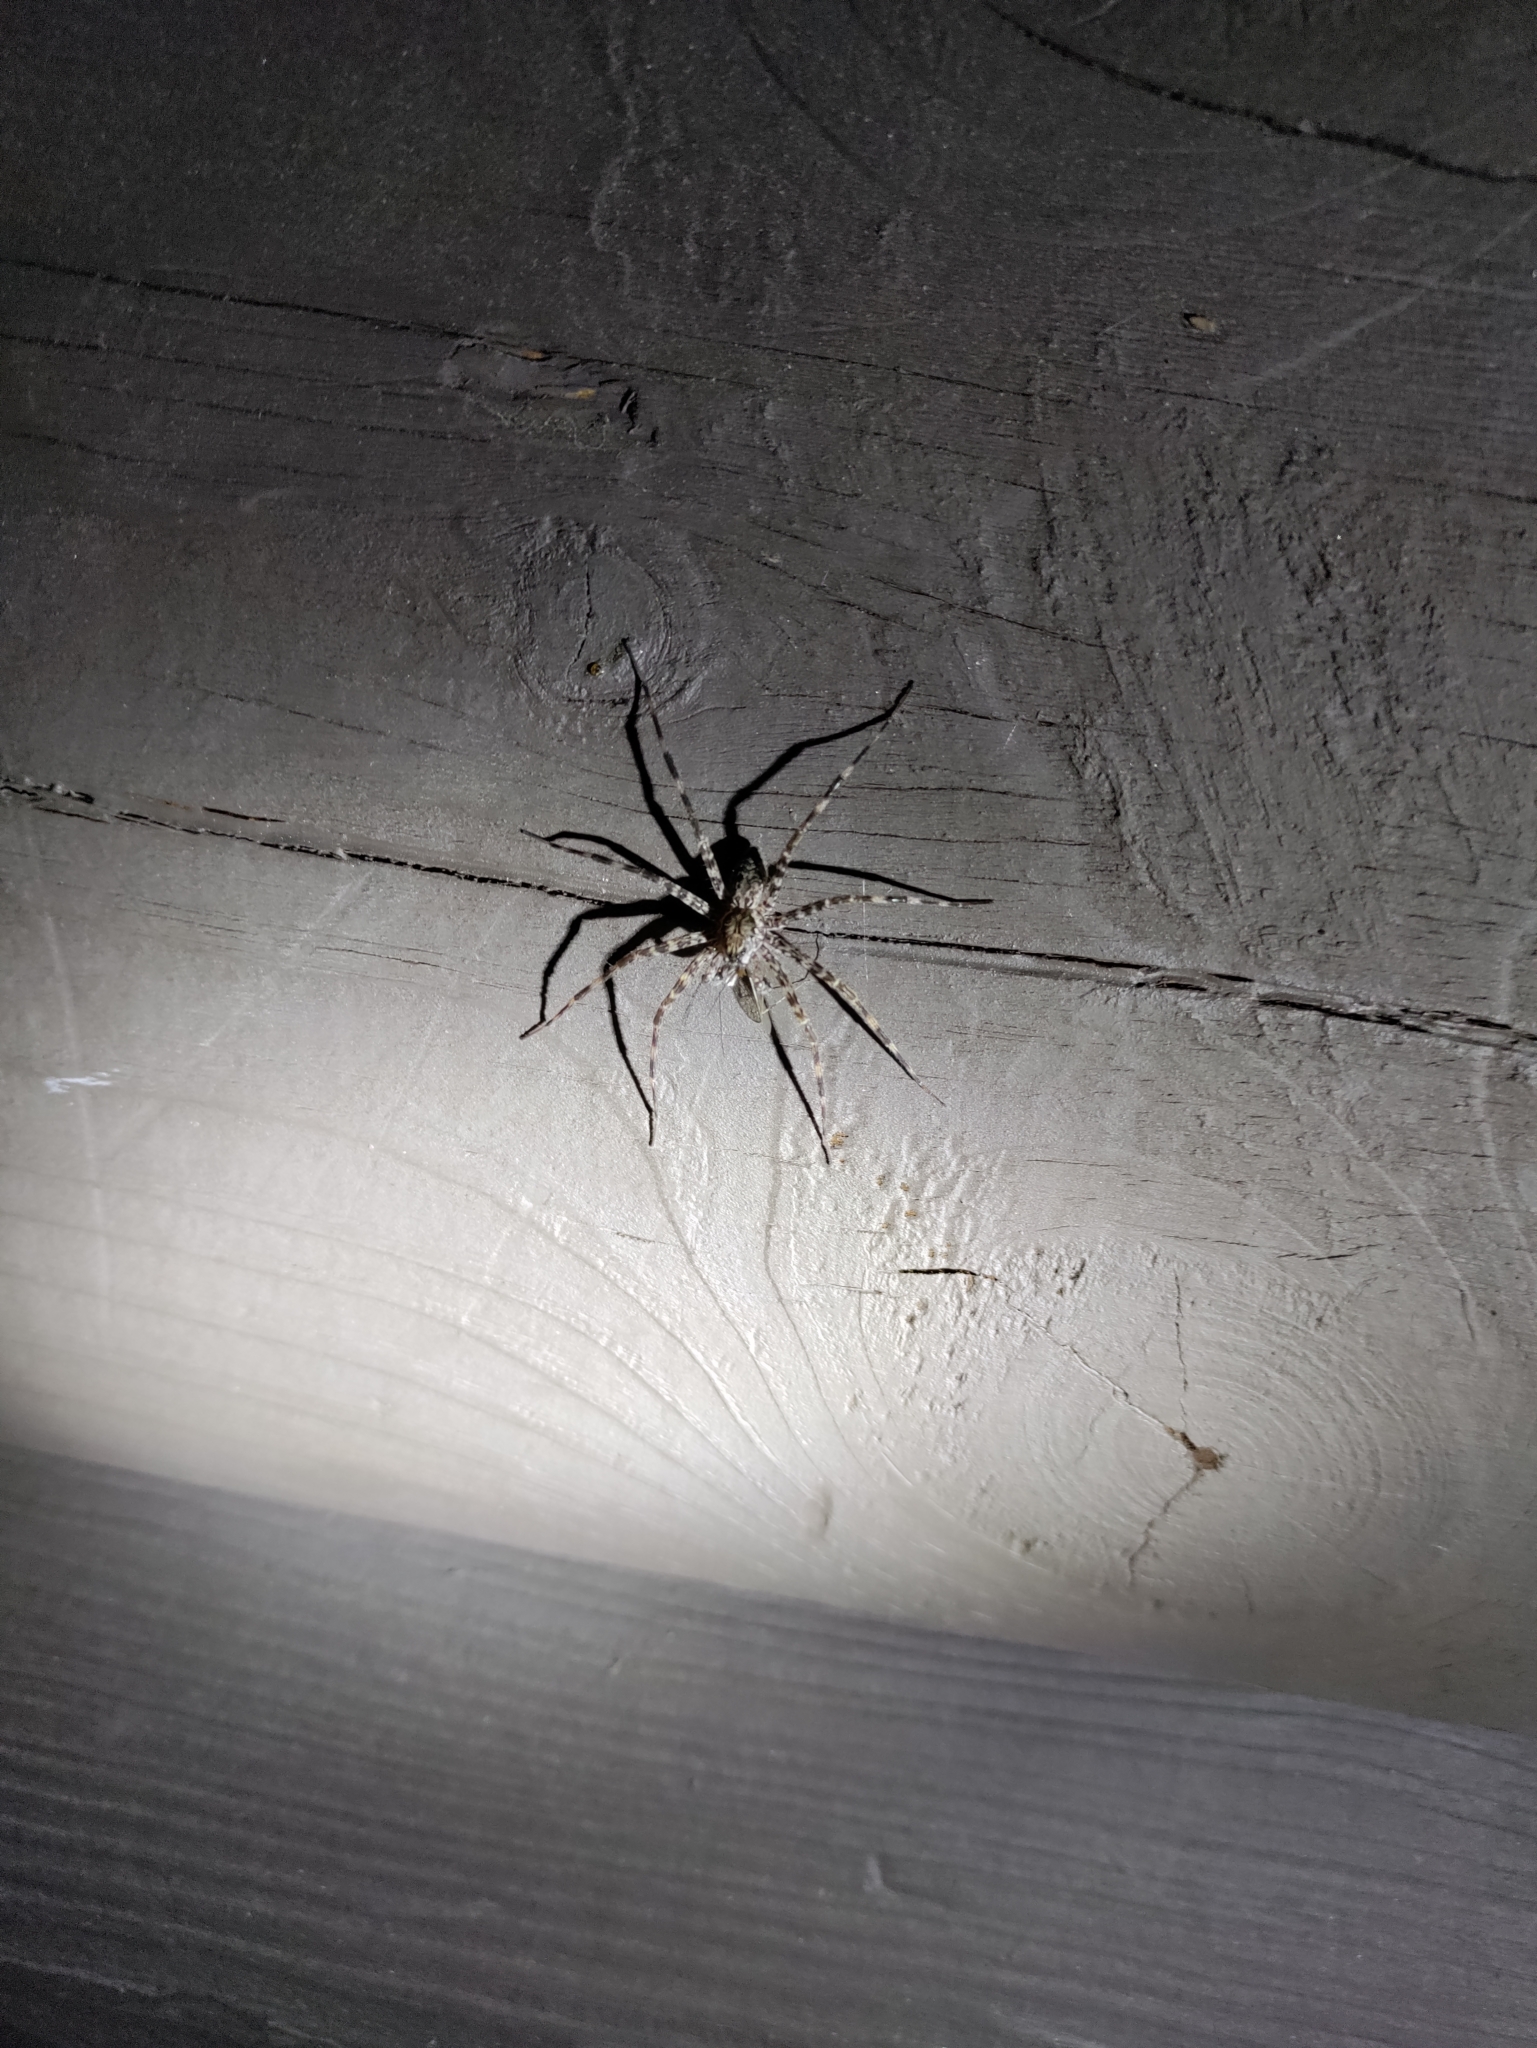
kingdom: Animalia
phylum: Arthropoda
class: Arachnida
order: Araneae
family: Pisauridae
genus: Dolomedes
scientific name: Dolomedes tenebrosus
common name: Dark fishing spider
